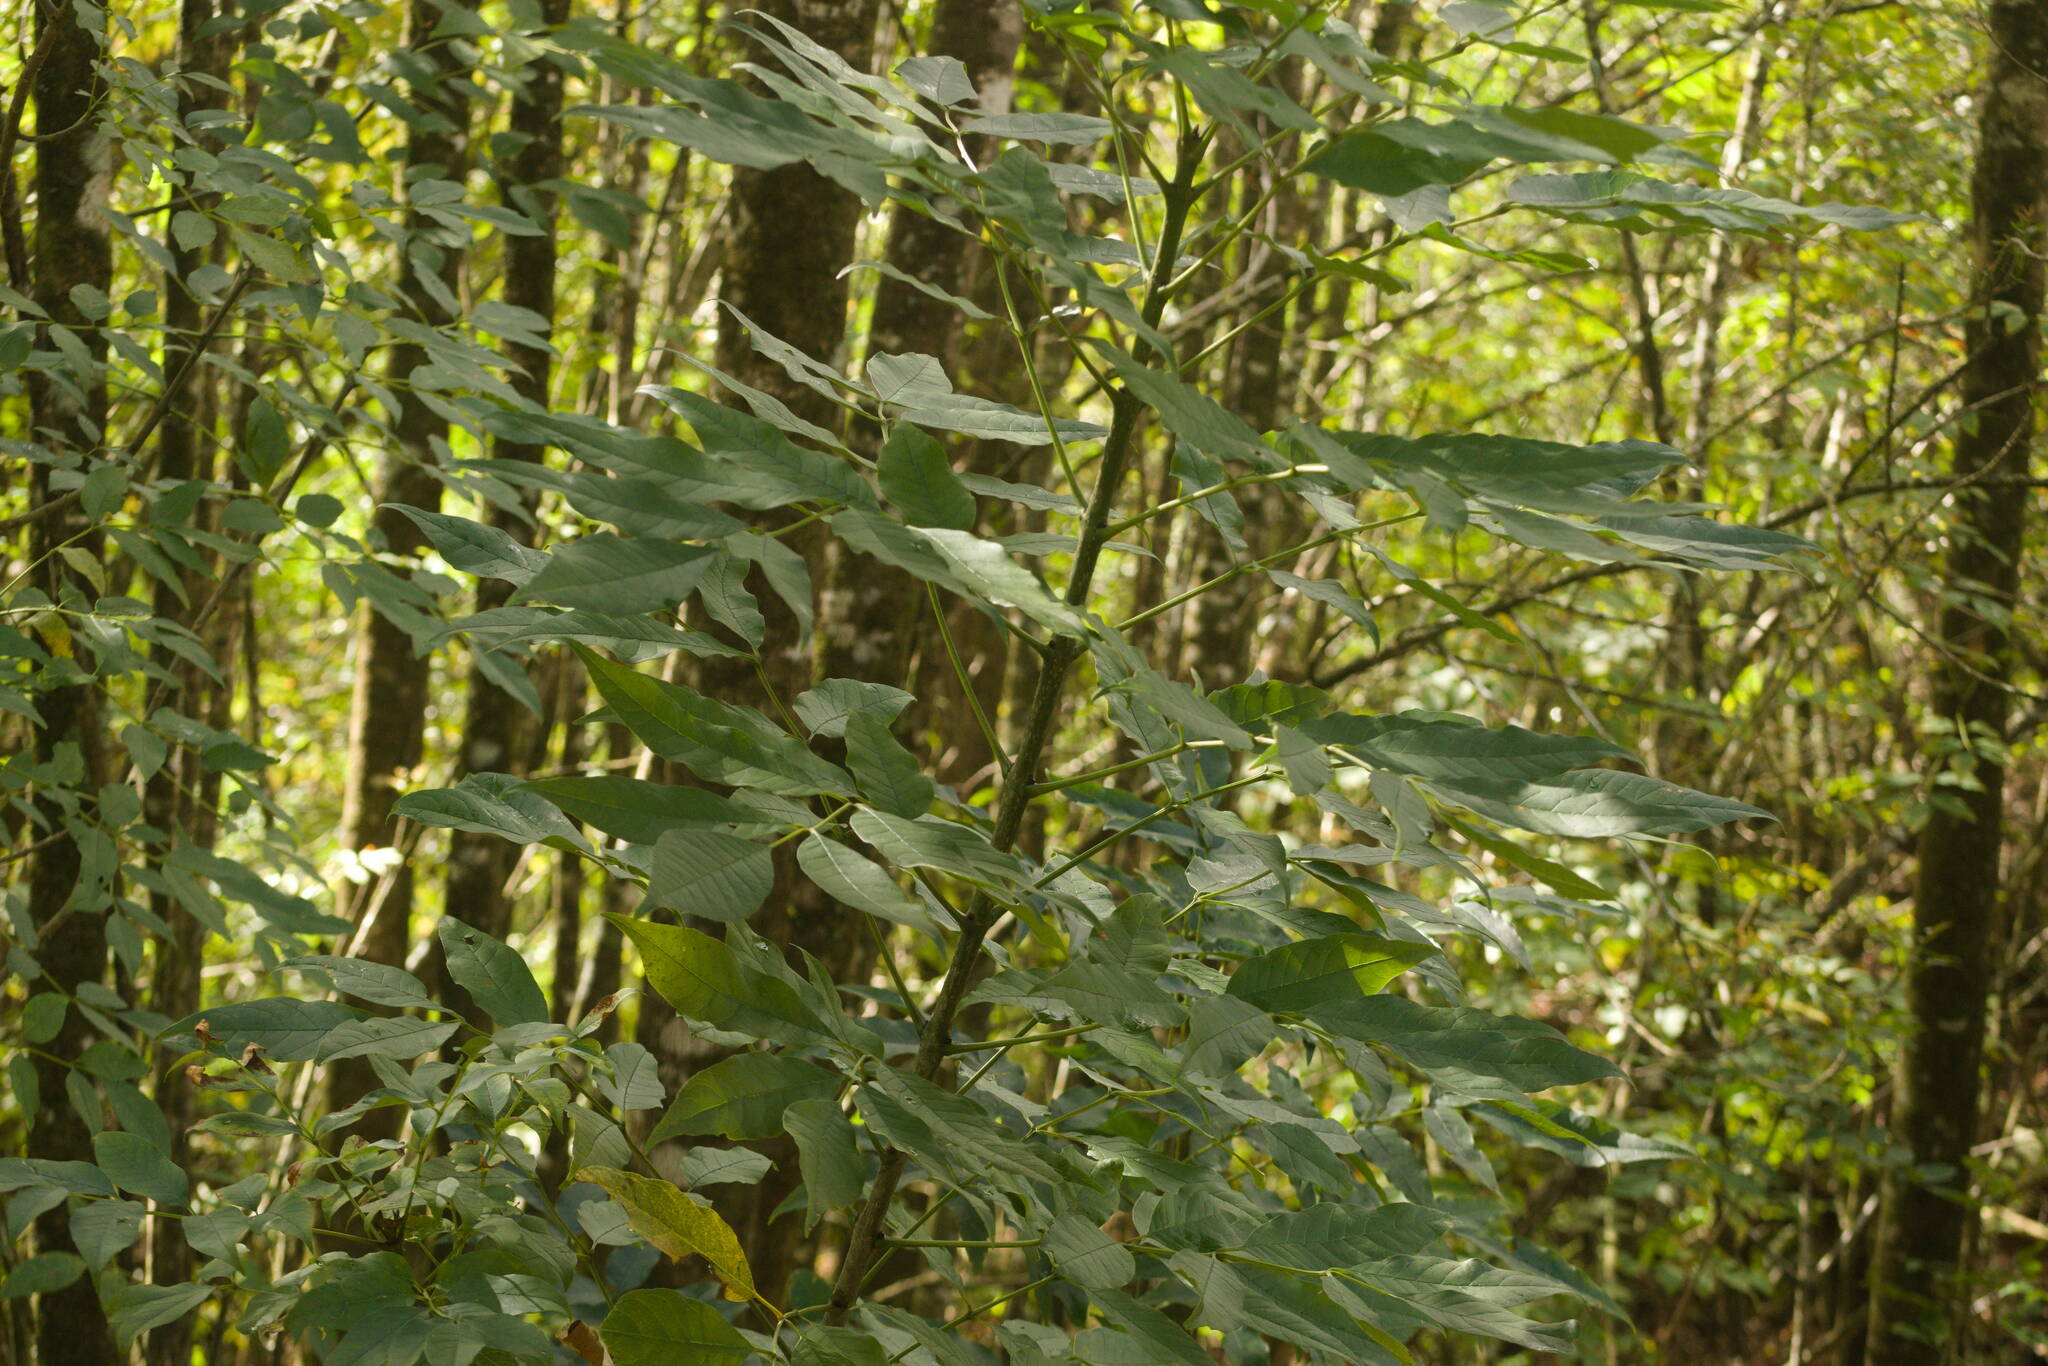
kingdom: Plantae
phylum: Tracheophyta
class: Magnoliopsida
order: Lamiales
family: Oleaceae
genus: Fraxinus
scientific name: Fraxinus uhdei
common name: Shamel ash
